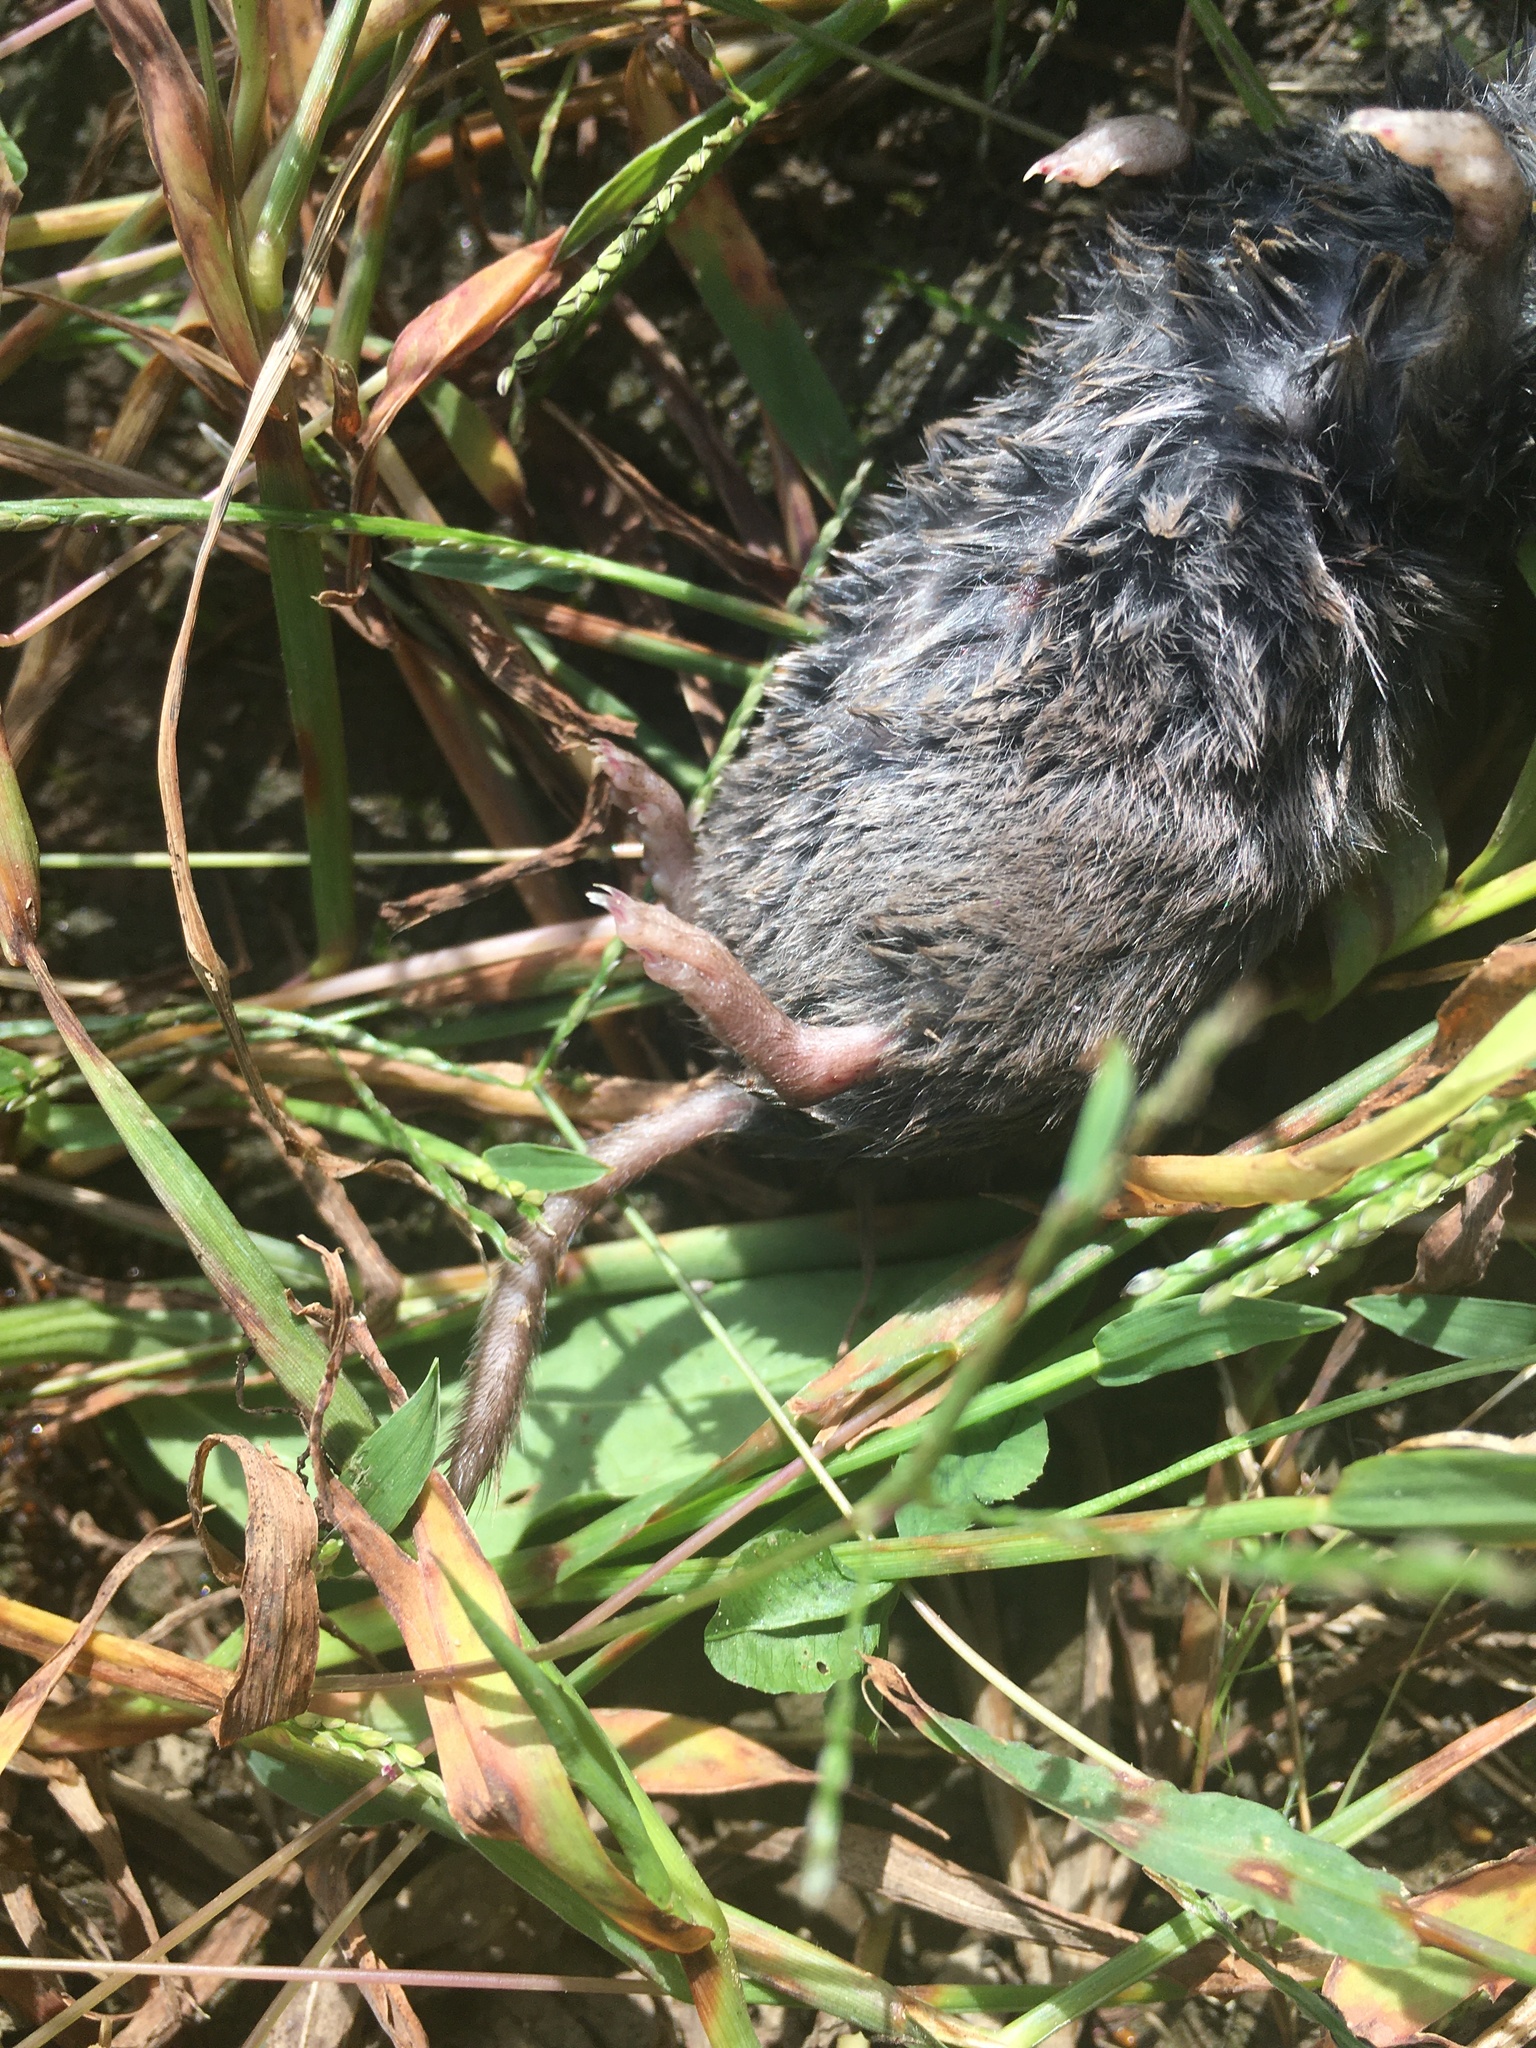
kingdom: Animalia
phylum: Chordata
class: Mammalia
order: Soricomorpha
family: Soricidae
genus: Blarina
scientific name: Blarina brevicauda
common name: Northern short-tailed shrew
